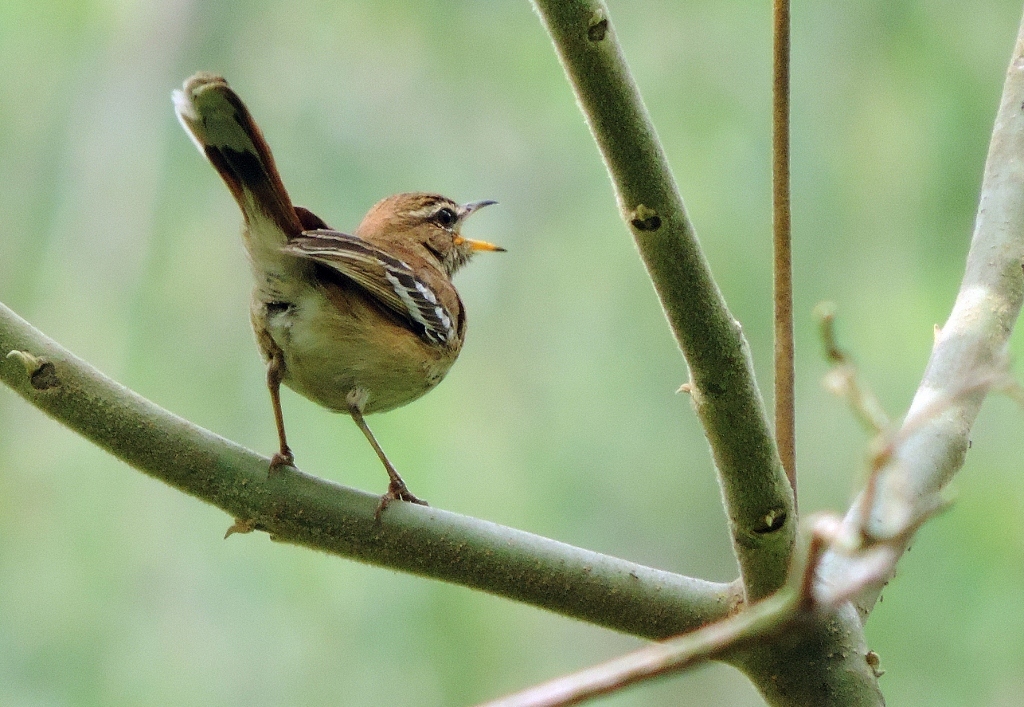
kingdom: Animalia
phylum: Chordata
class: Aves
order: Passeriformes
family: Muscicapidae
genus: Erythropygia
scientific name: Erythropygia leucophrys
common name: White-browed scrub robin
